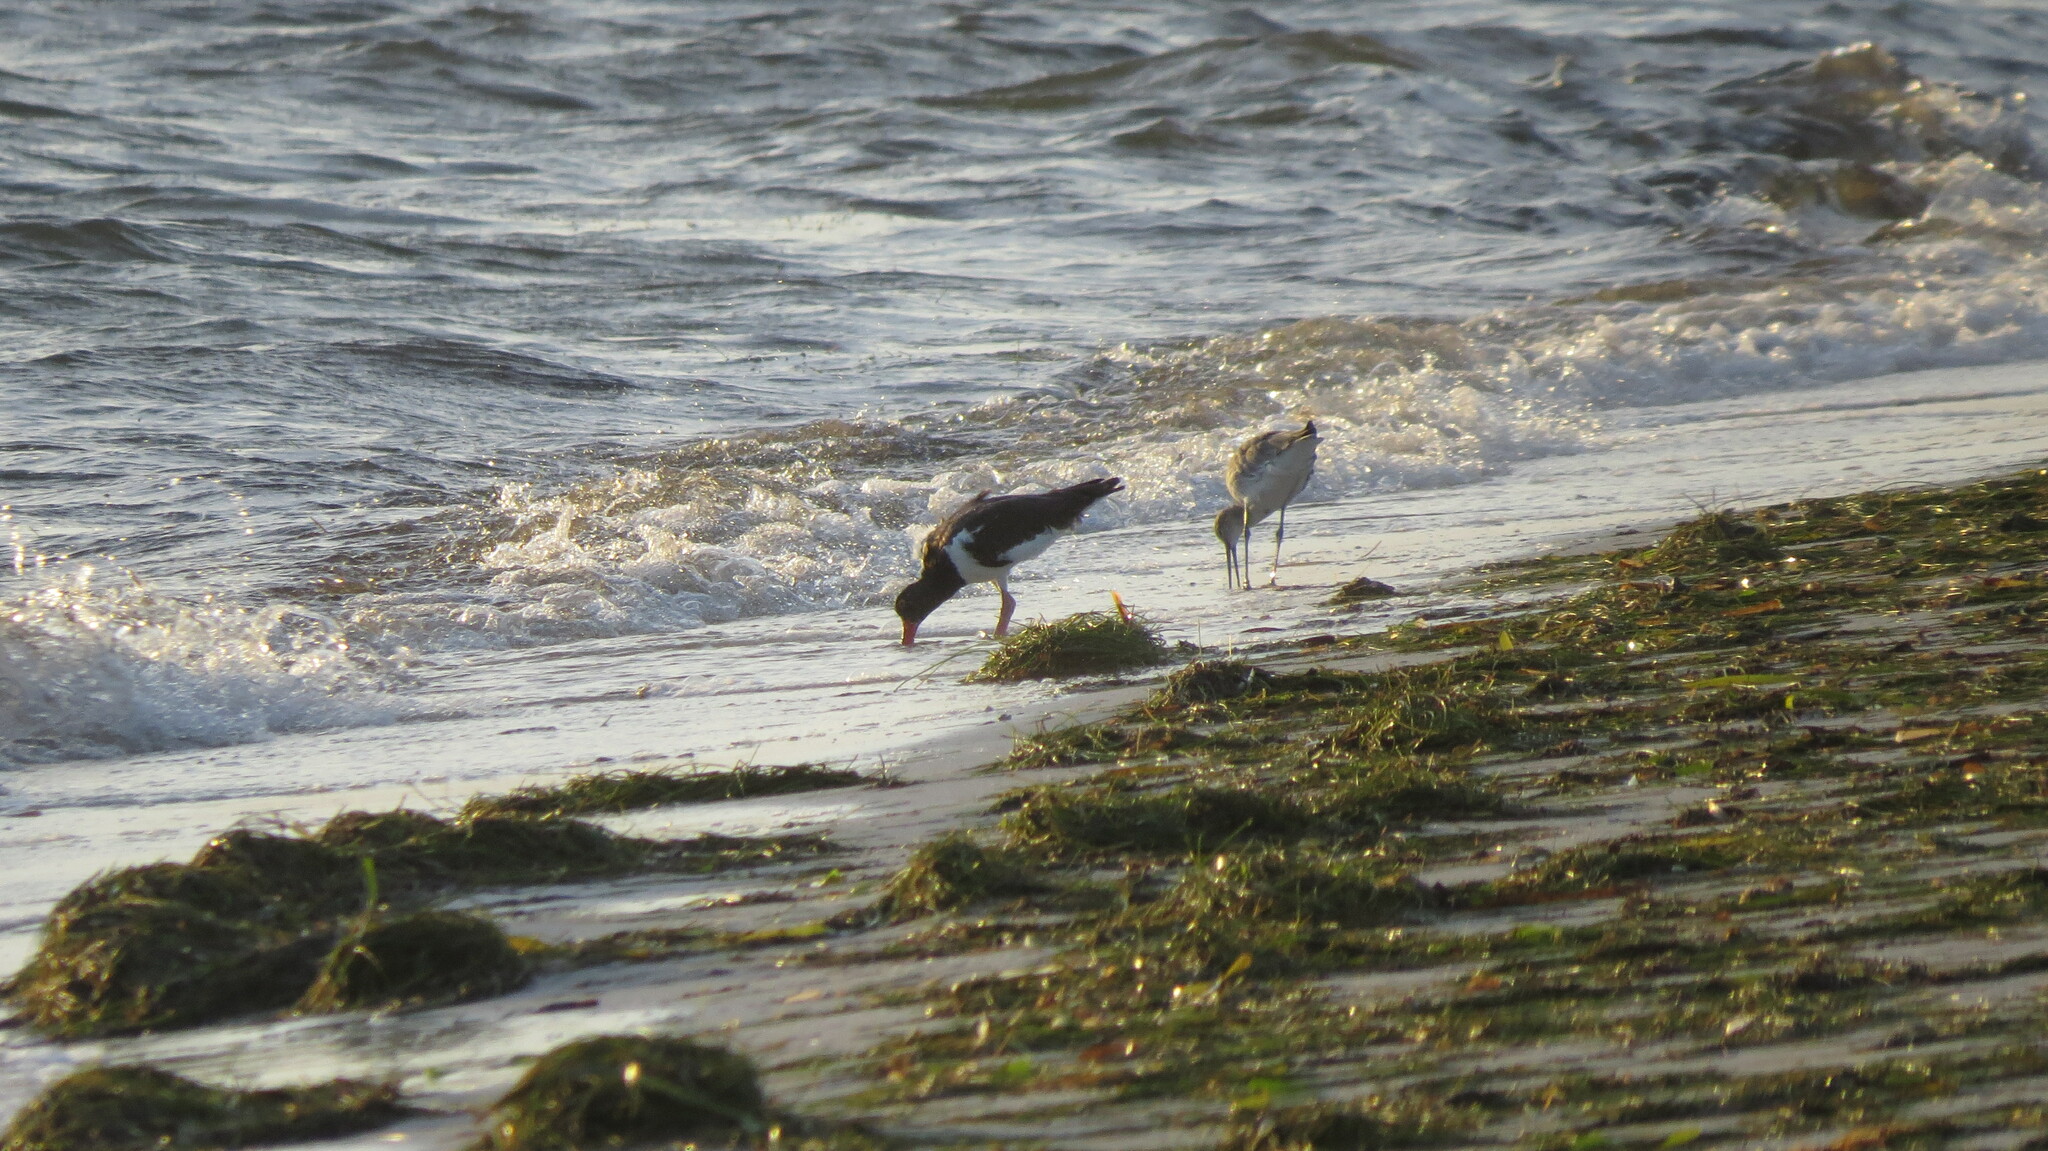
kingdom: Animalia
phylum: Chordata
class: Aves
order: Charadriiformes
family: Haematopodidae
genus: Haematopus
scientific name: Haematopus palliatus
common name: American oystercatcher
